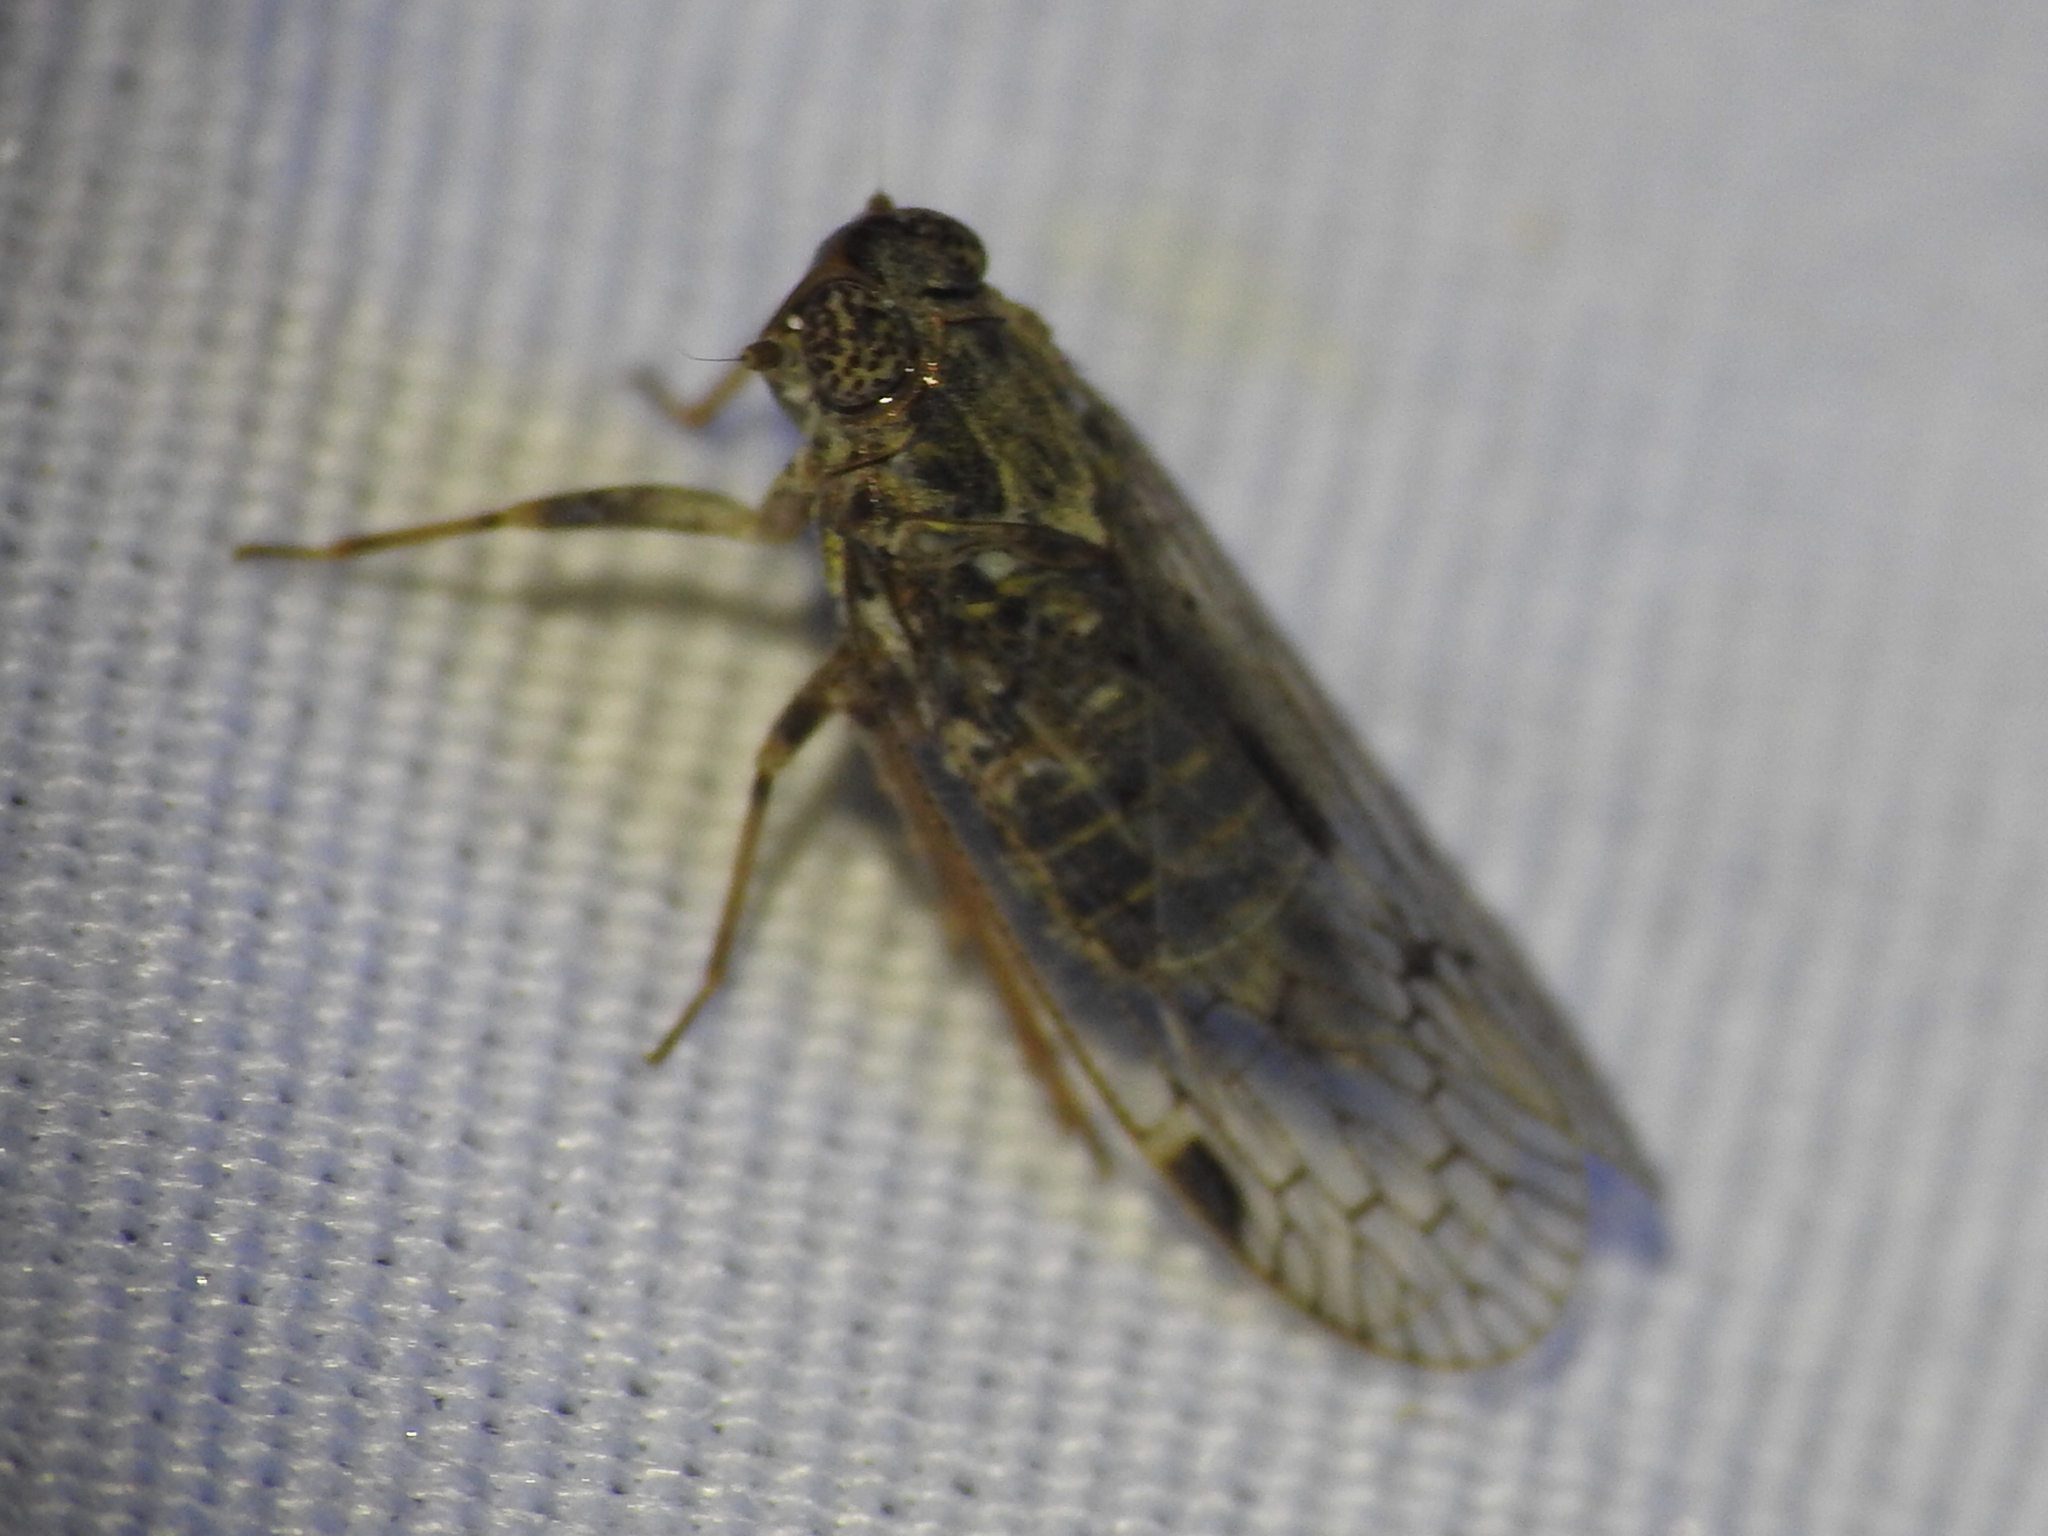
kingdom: Animalia
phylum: Arthropoda
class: Insecta
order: Hemiptera
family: Cixiidae
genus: Melanoliarus
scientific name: Melanoliarus aridus
